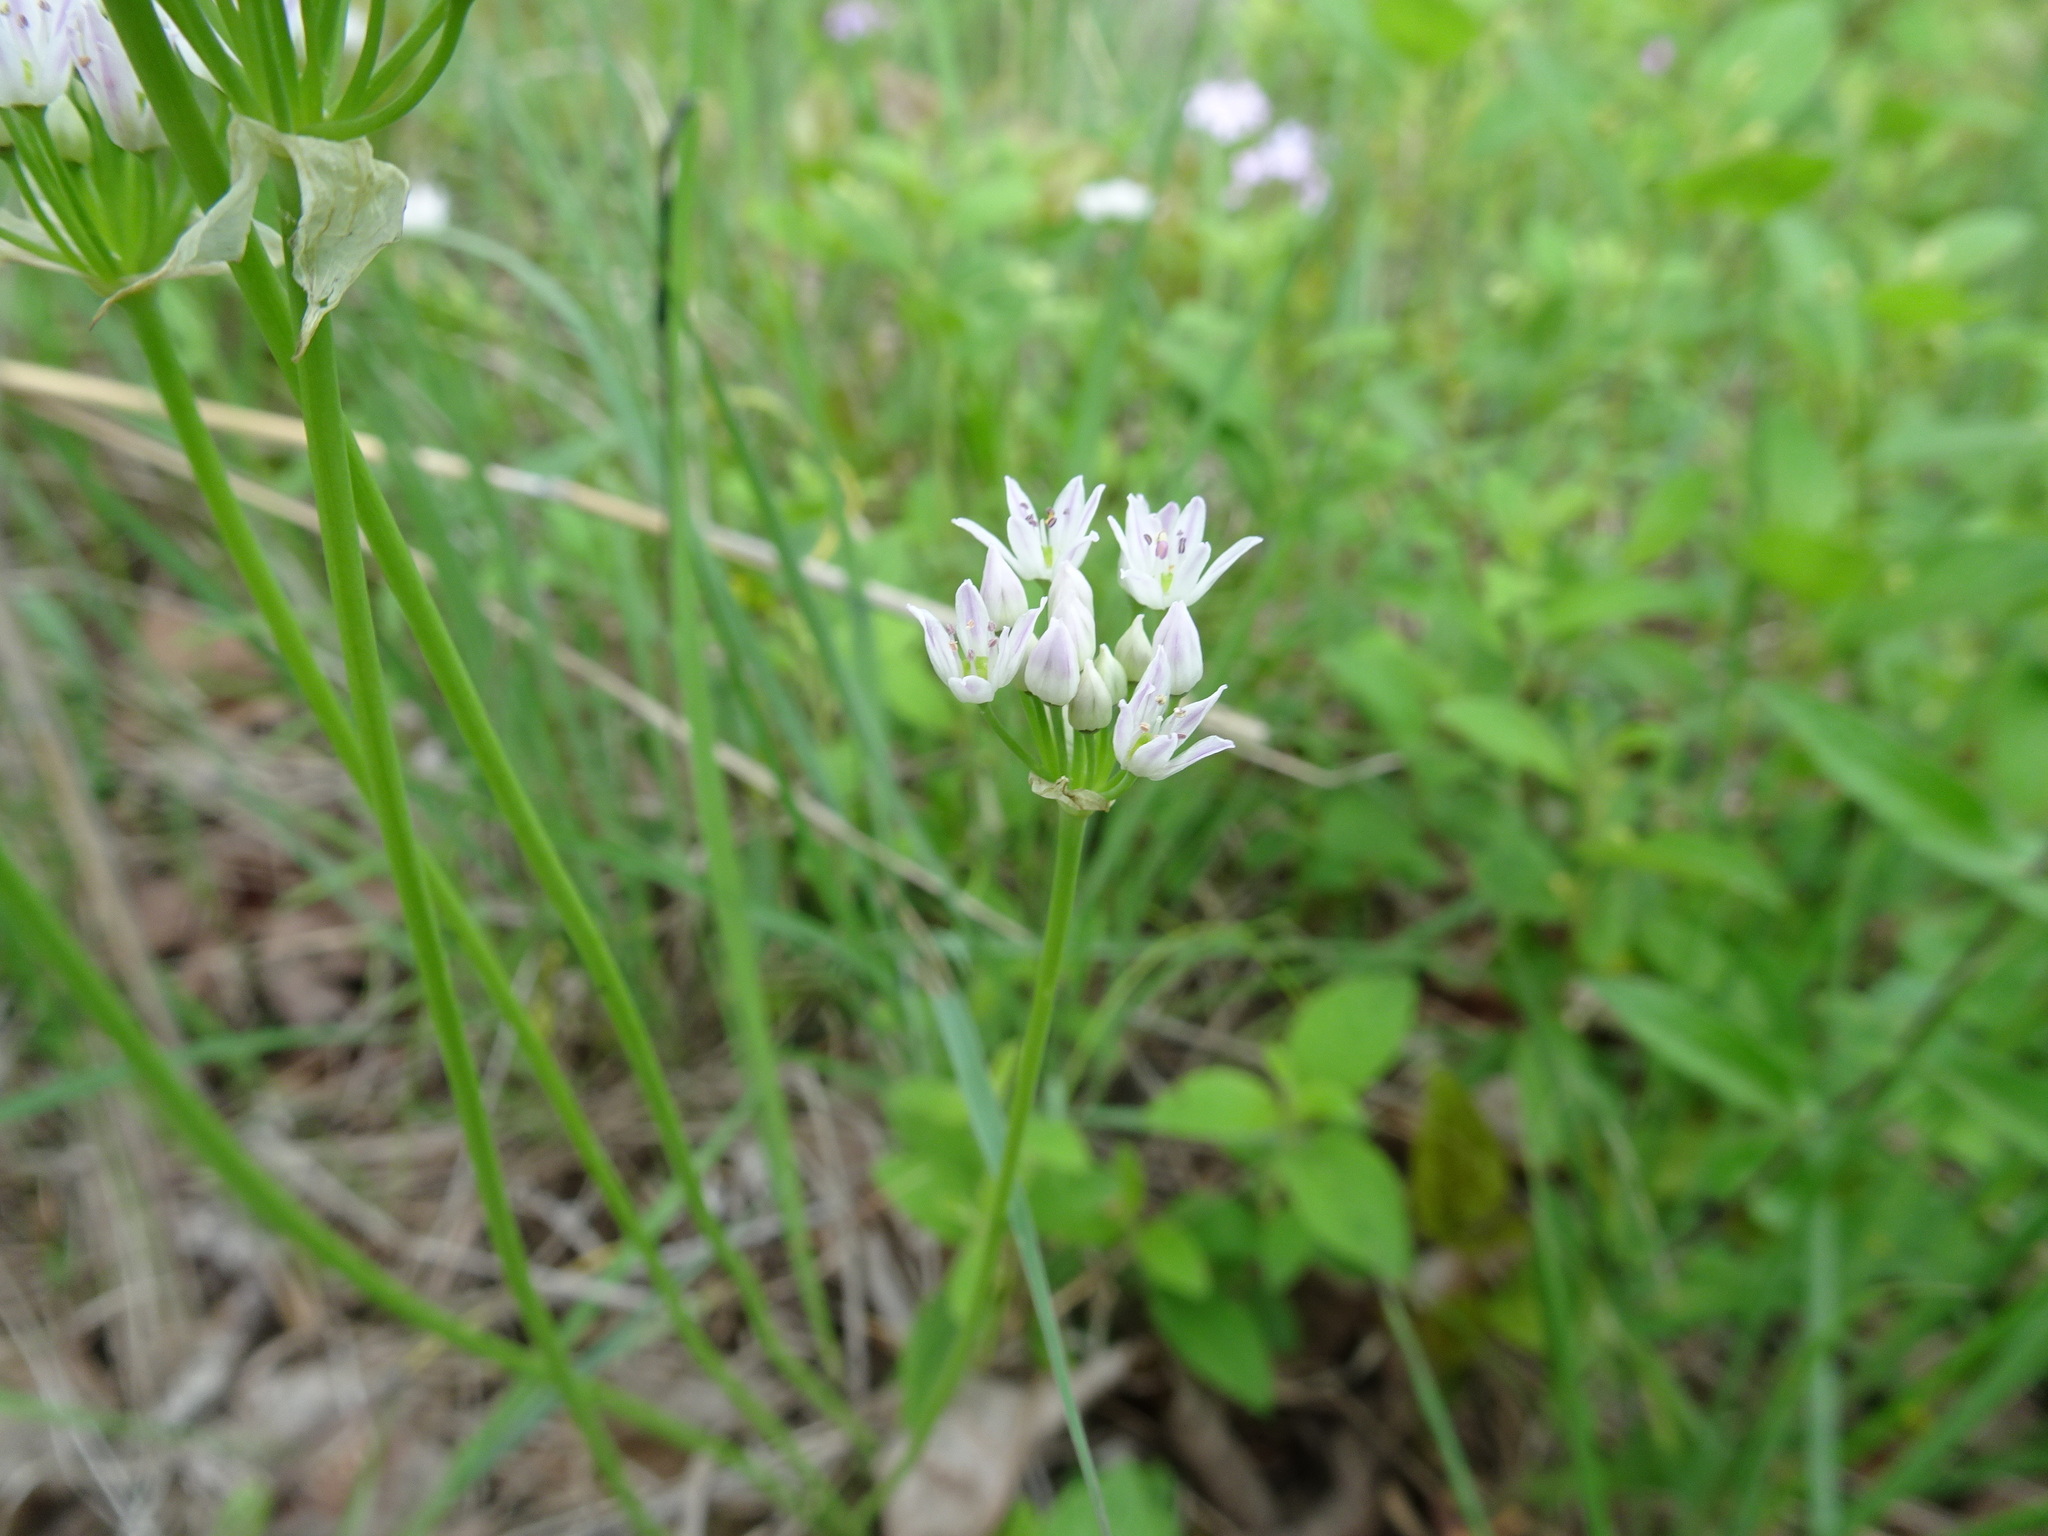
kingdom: Plantae
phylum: Tracheophyta
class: Liliopsida
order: Asparagales
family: Amaryllidaceae
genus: Allium
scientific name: Allium canadense
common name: Meadow garlic
